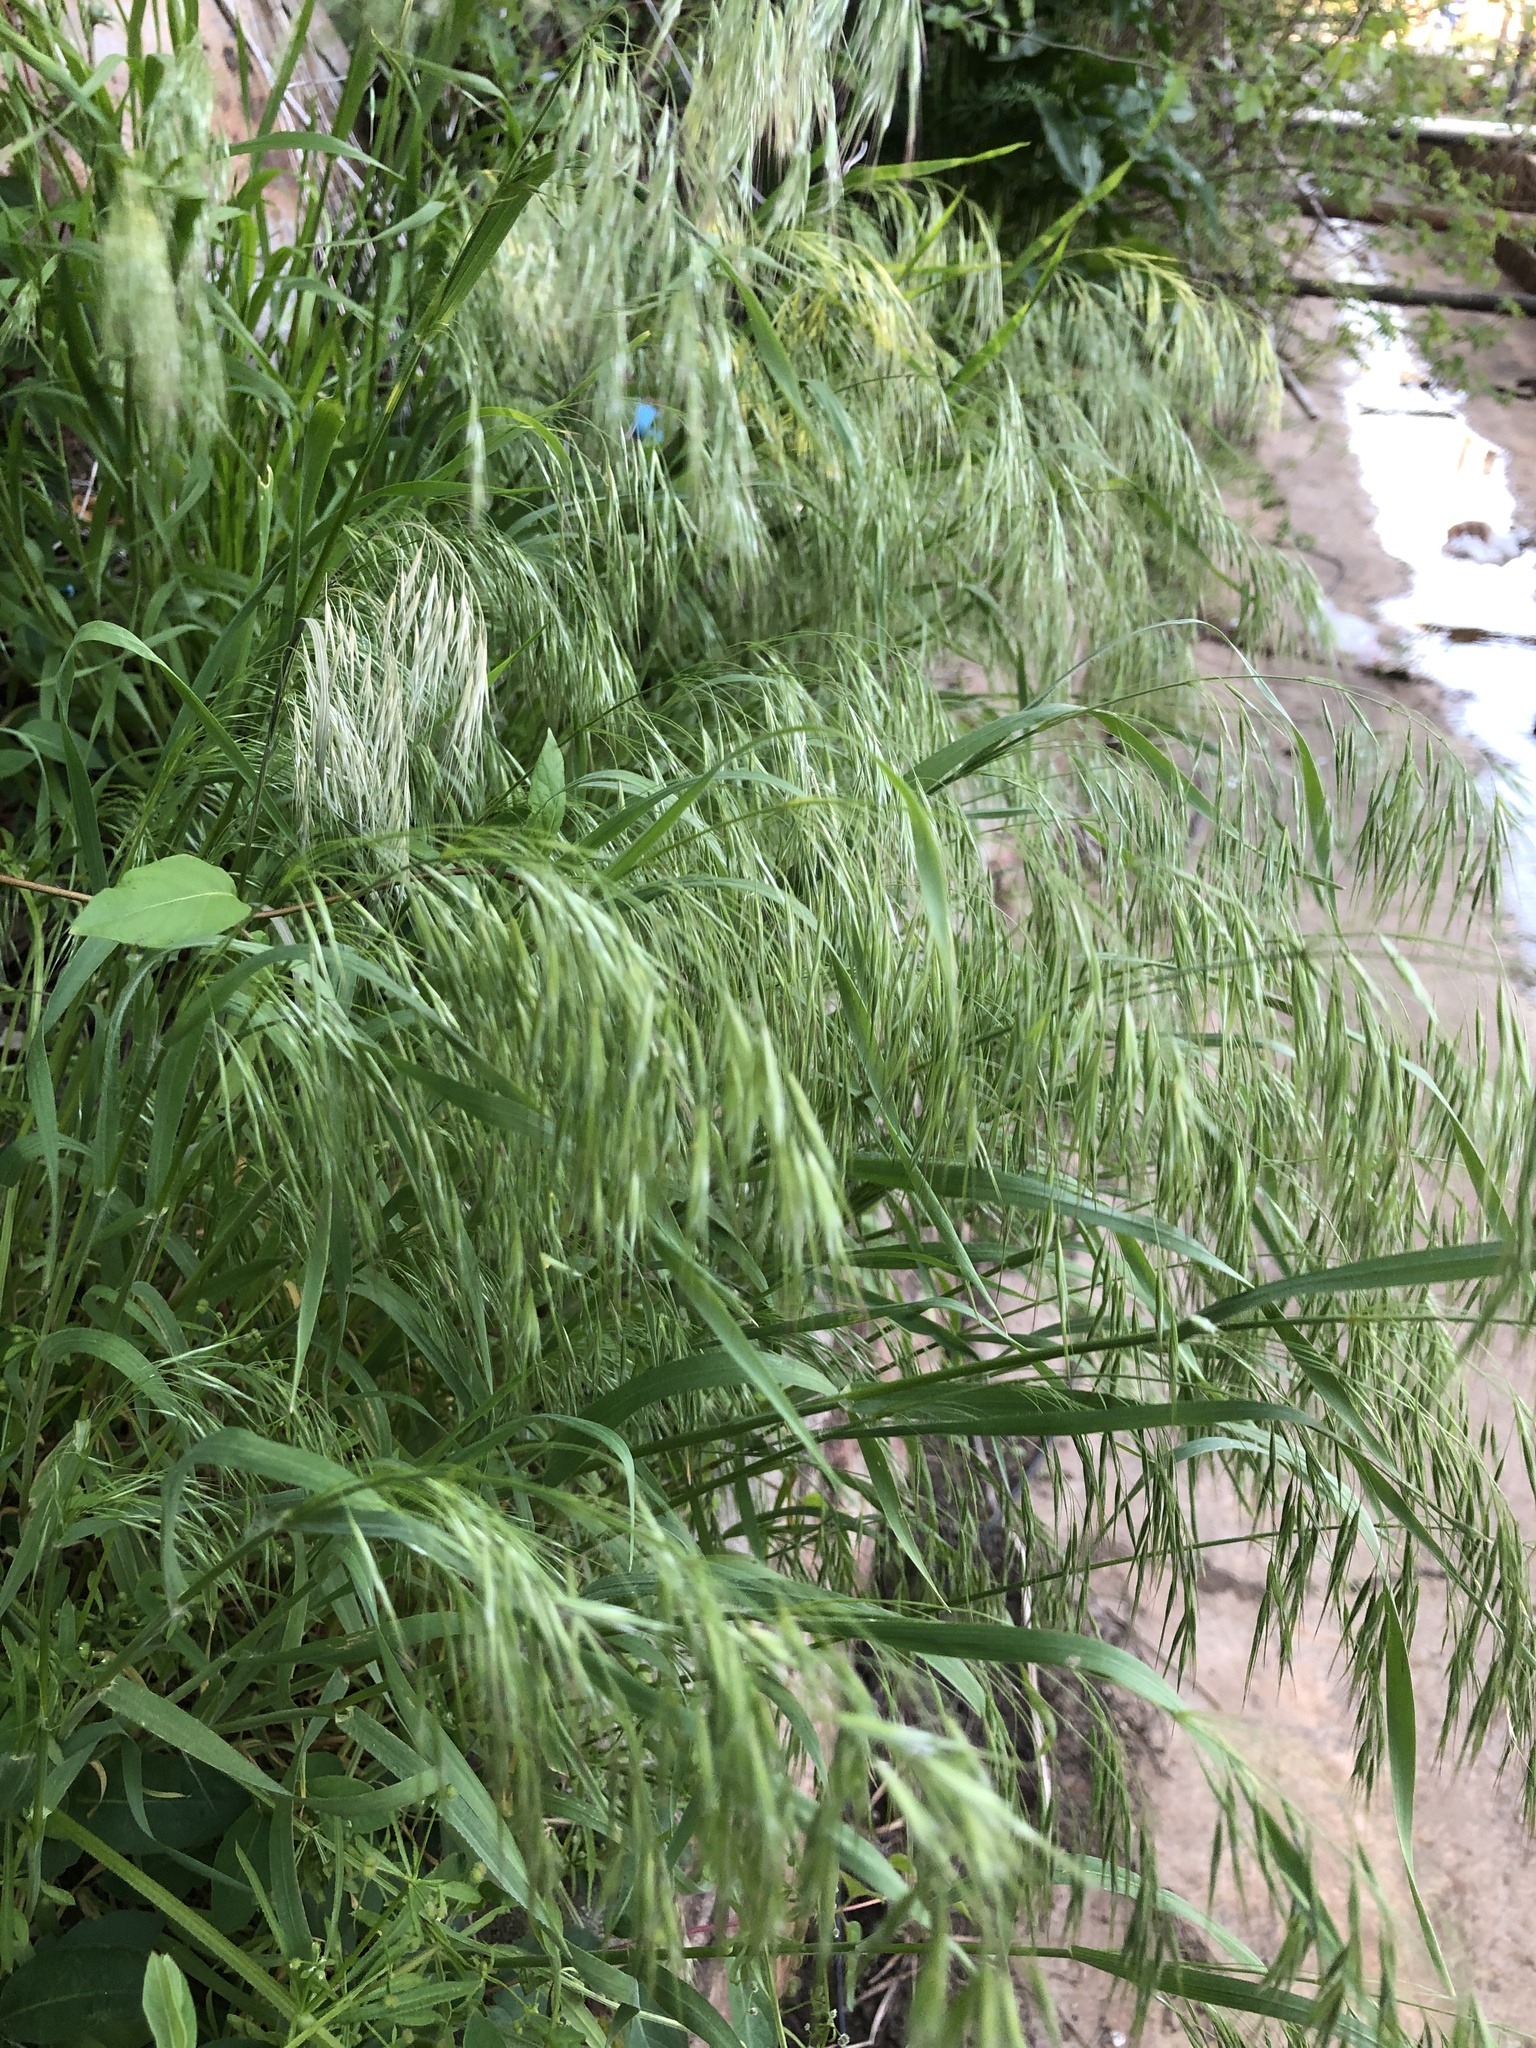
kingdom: Plantae
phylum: Tracheophyta
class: Liliopsida
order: Poales
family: Poaceae
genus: Bromus
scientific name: Bromus tectorum
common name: Cheatgrass
